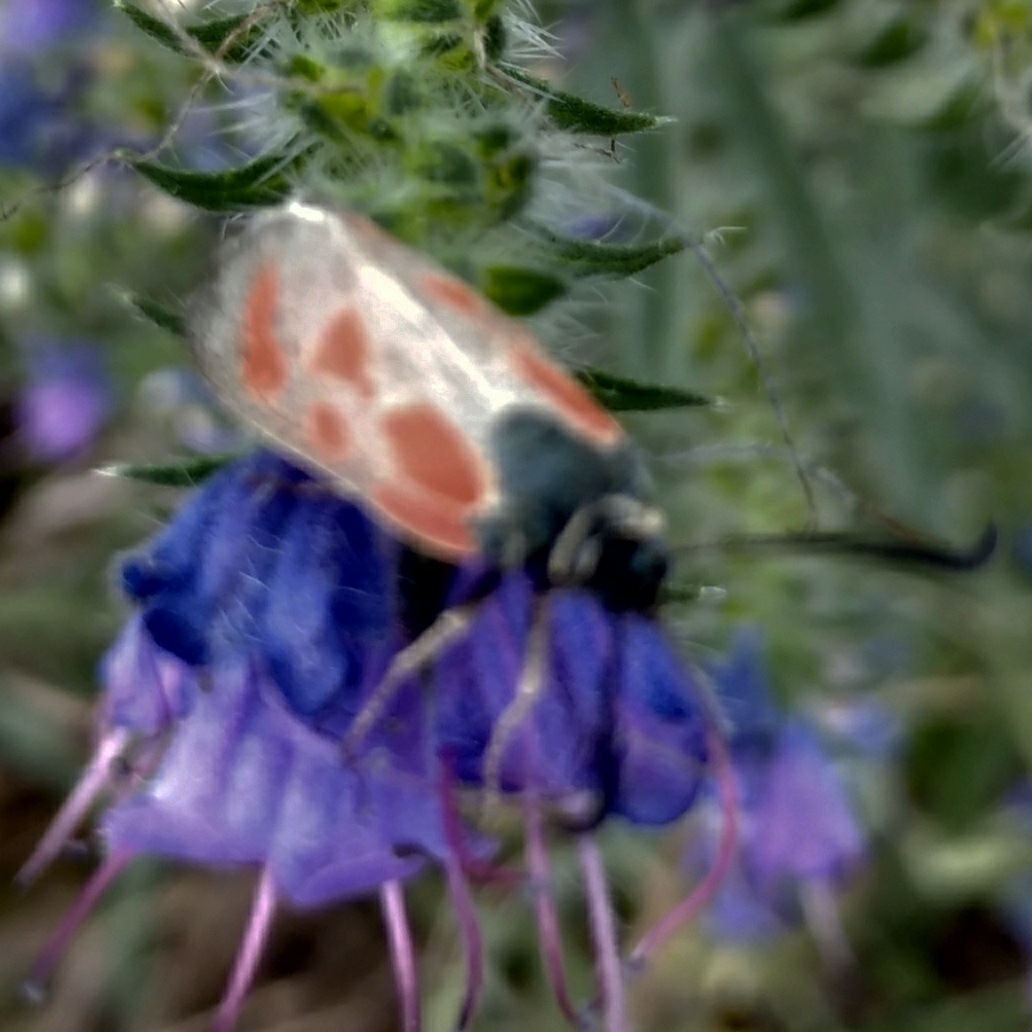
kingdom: Animalia
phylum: Arthropoda
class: Insecta
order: Lepidoptera
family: Zygaenidae
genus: Zygaena
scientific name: Zygaena loti
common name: Slender scotch burnet
